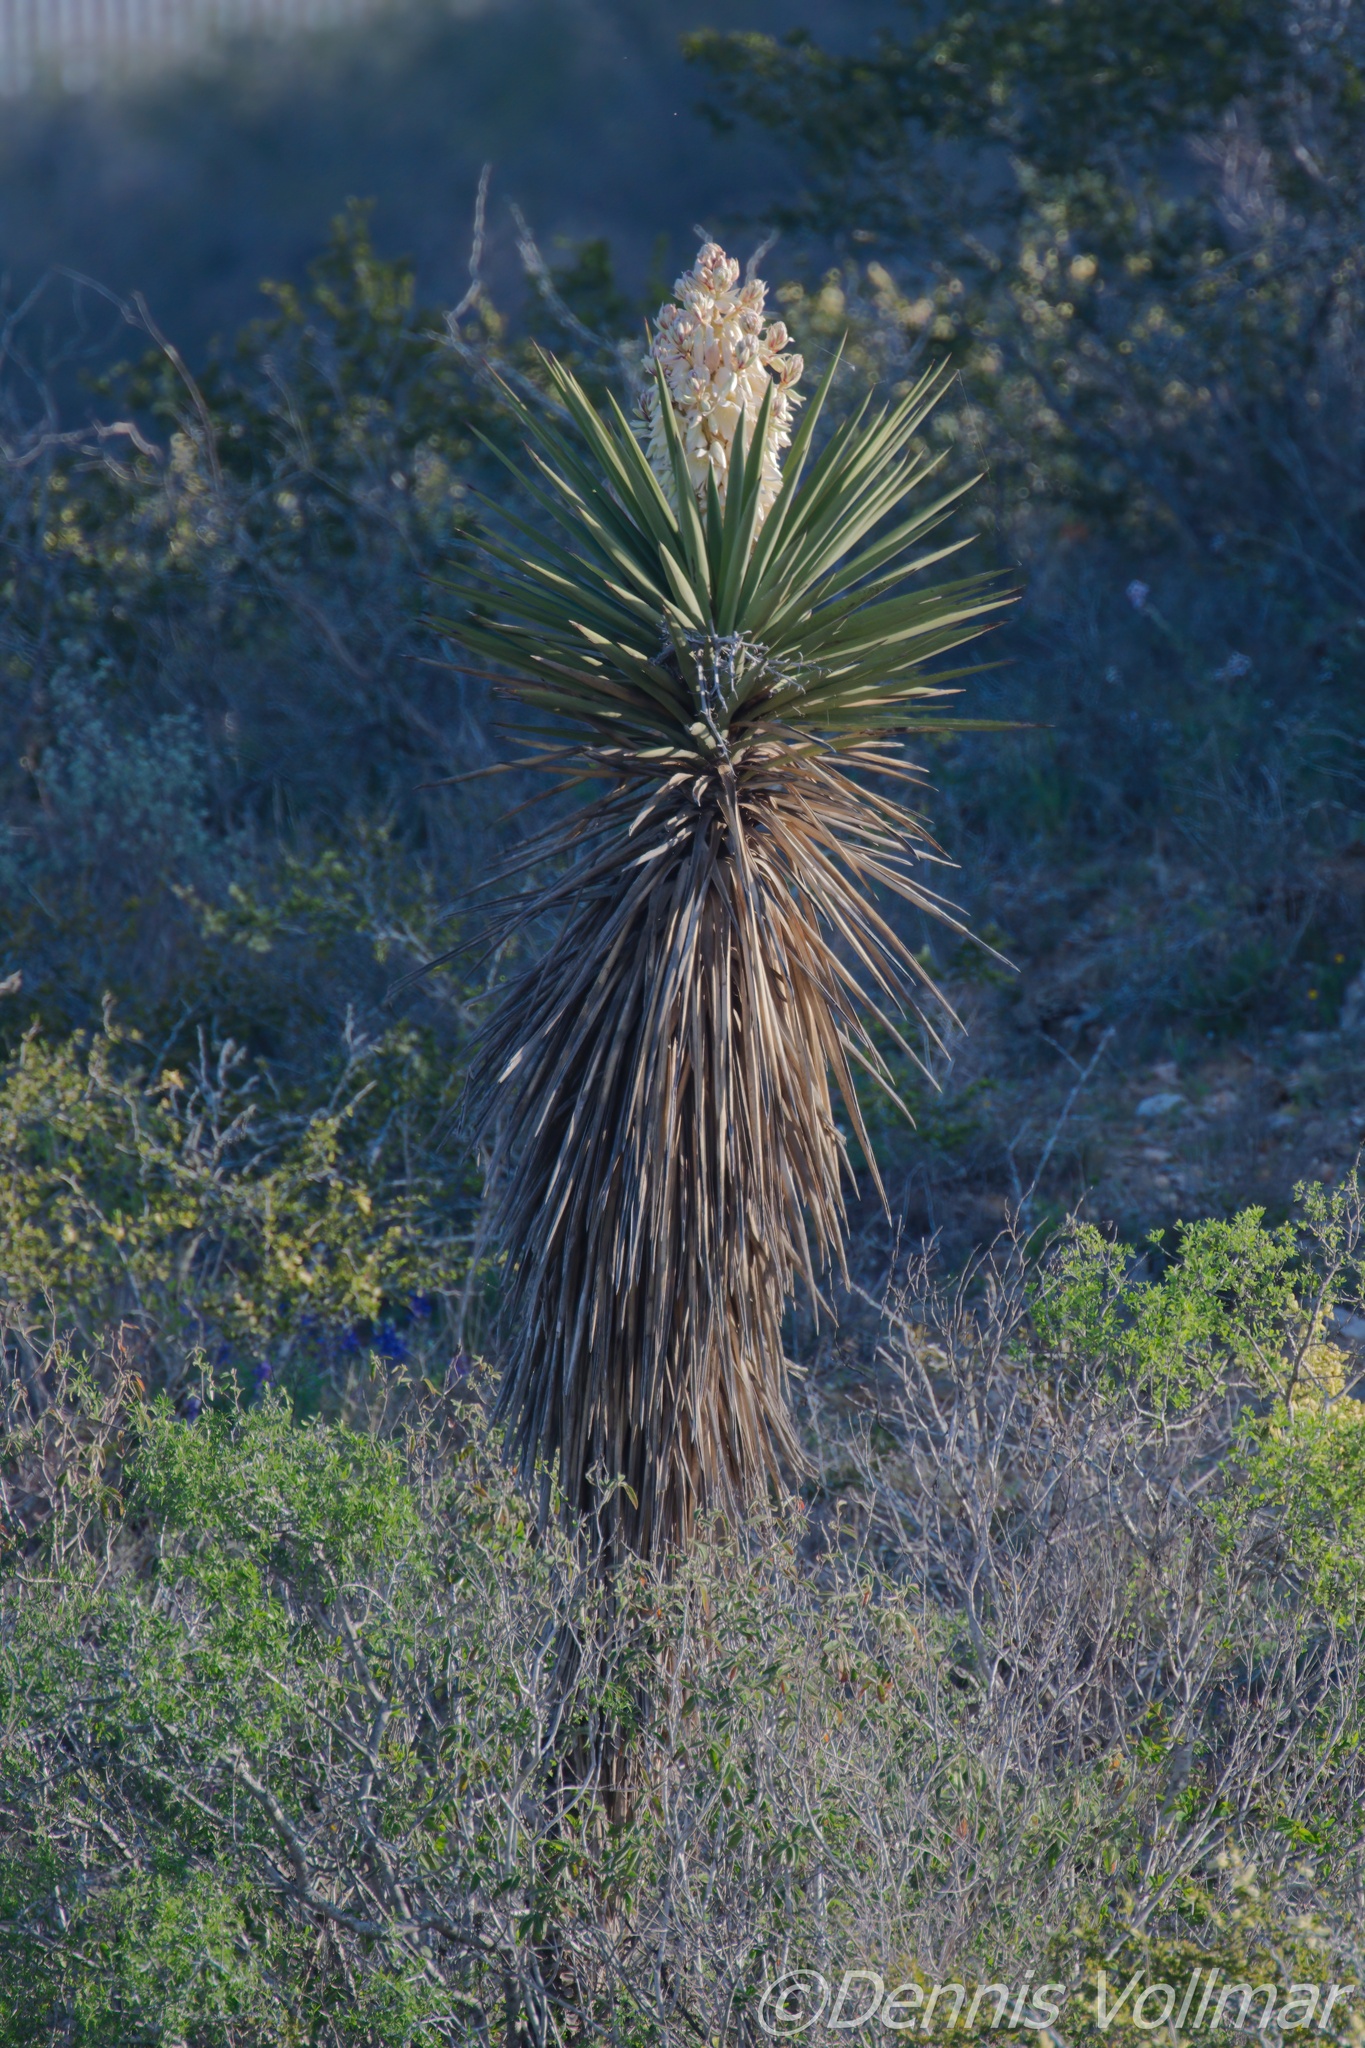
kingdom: Plantae
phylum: Tracheophyta
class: Liliopsida
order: Asparagales
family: Asparagaceae
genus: Yucca
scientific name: Yucca treculiana
